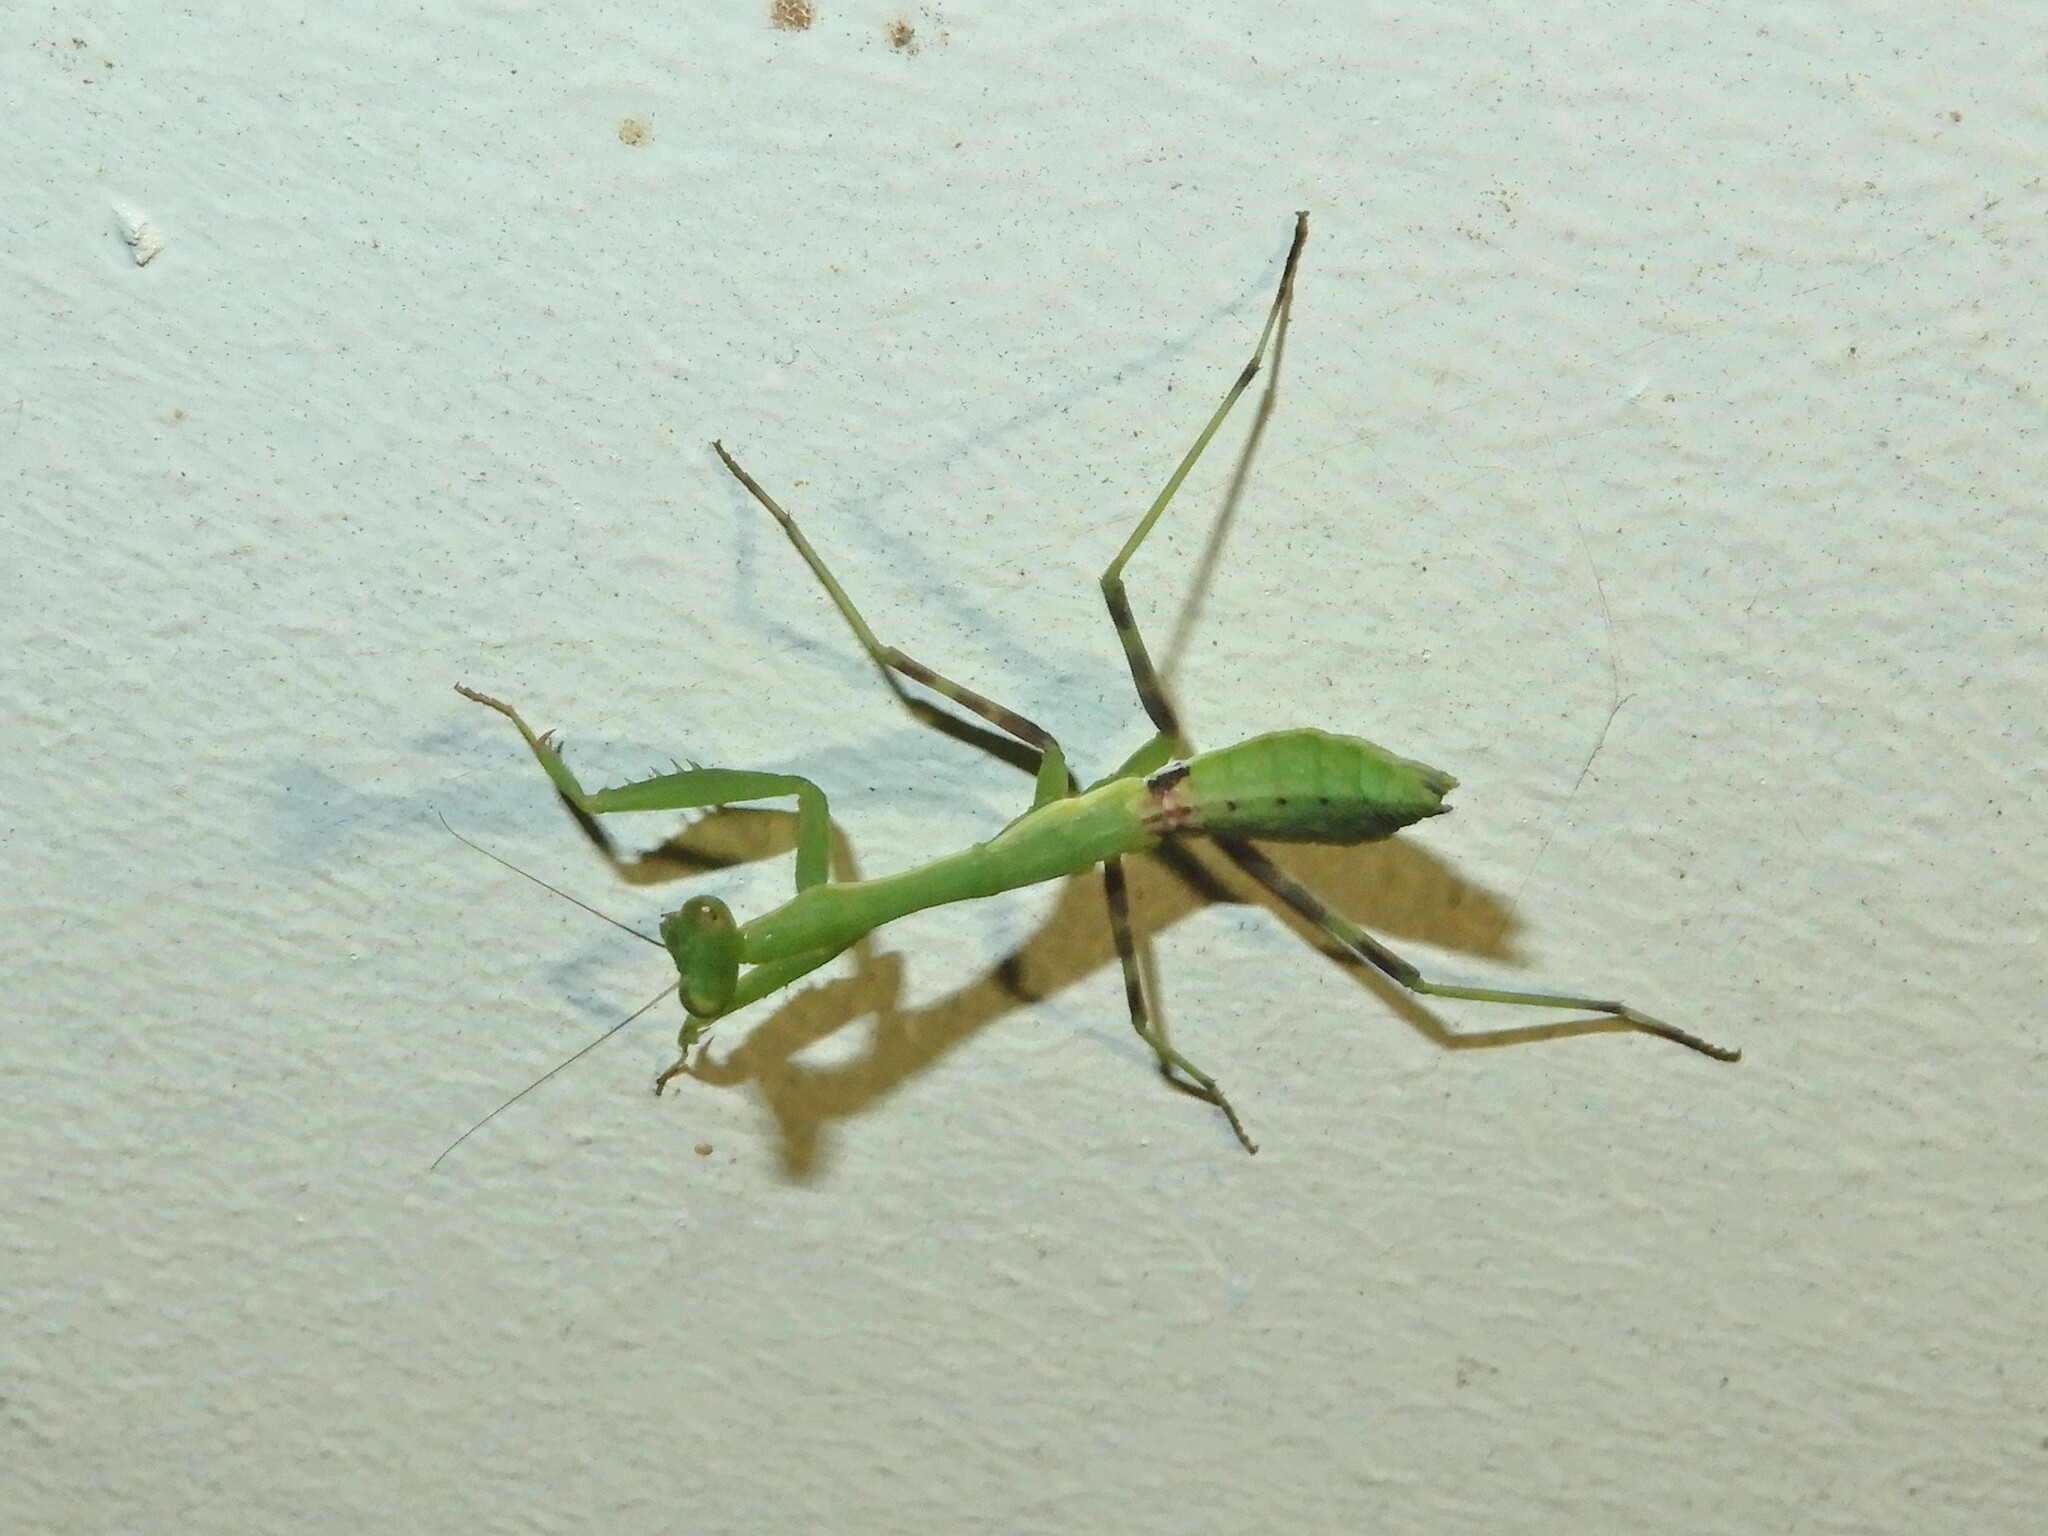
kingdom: Animalia
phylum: Arthropoda
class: Insecta
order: Mantodea
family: Miomantidae
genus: Miomantis
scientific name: Miomantis caffra
